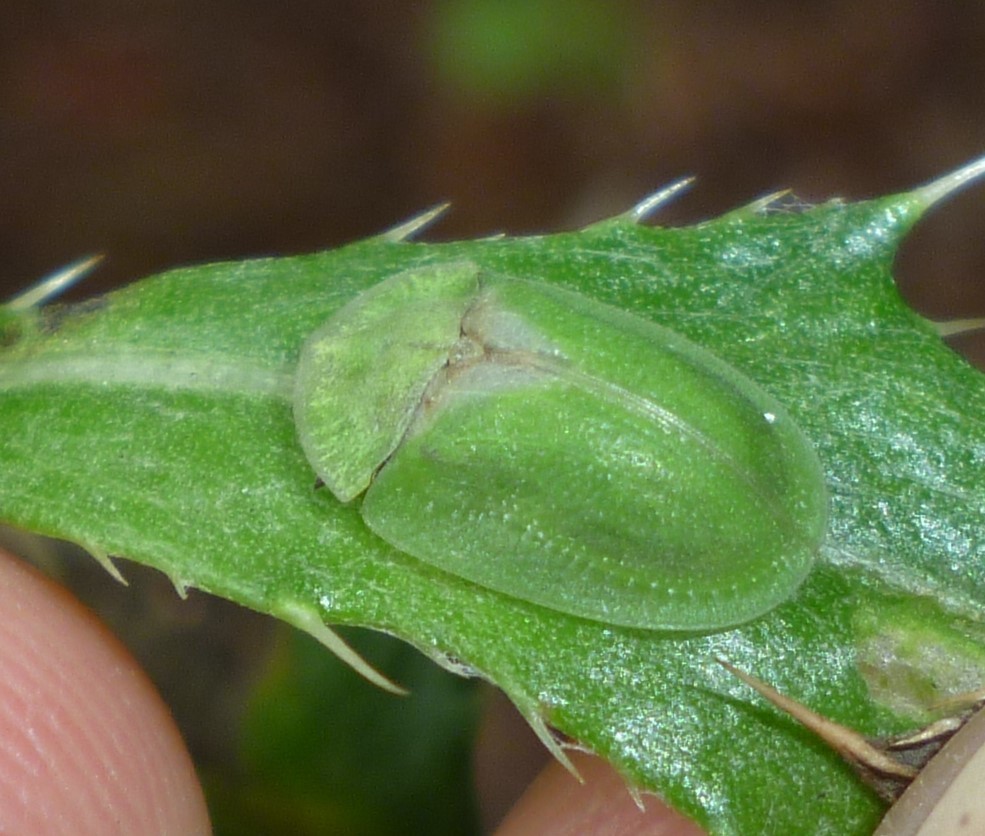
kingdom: Animalia
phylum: Arthropoda
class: Insecta
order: Coleoptera
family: Chrysomelidae
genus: Cassida
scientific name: Cassida rubiginosa
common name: Thistle tortoise beetle
